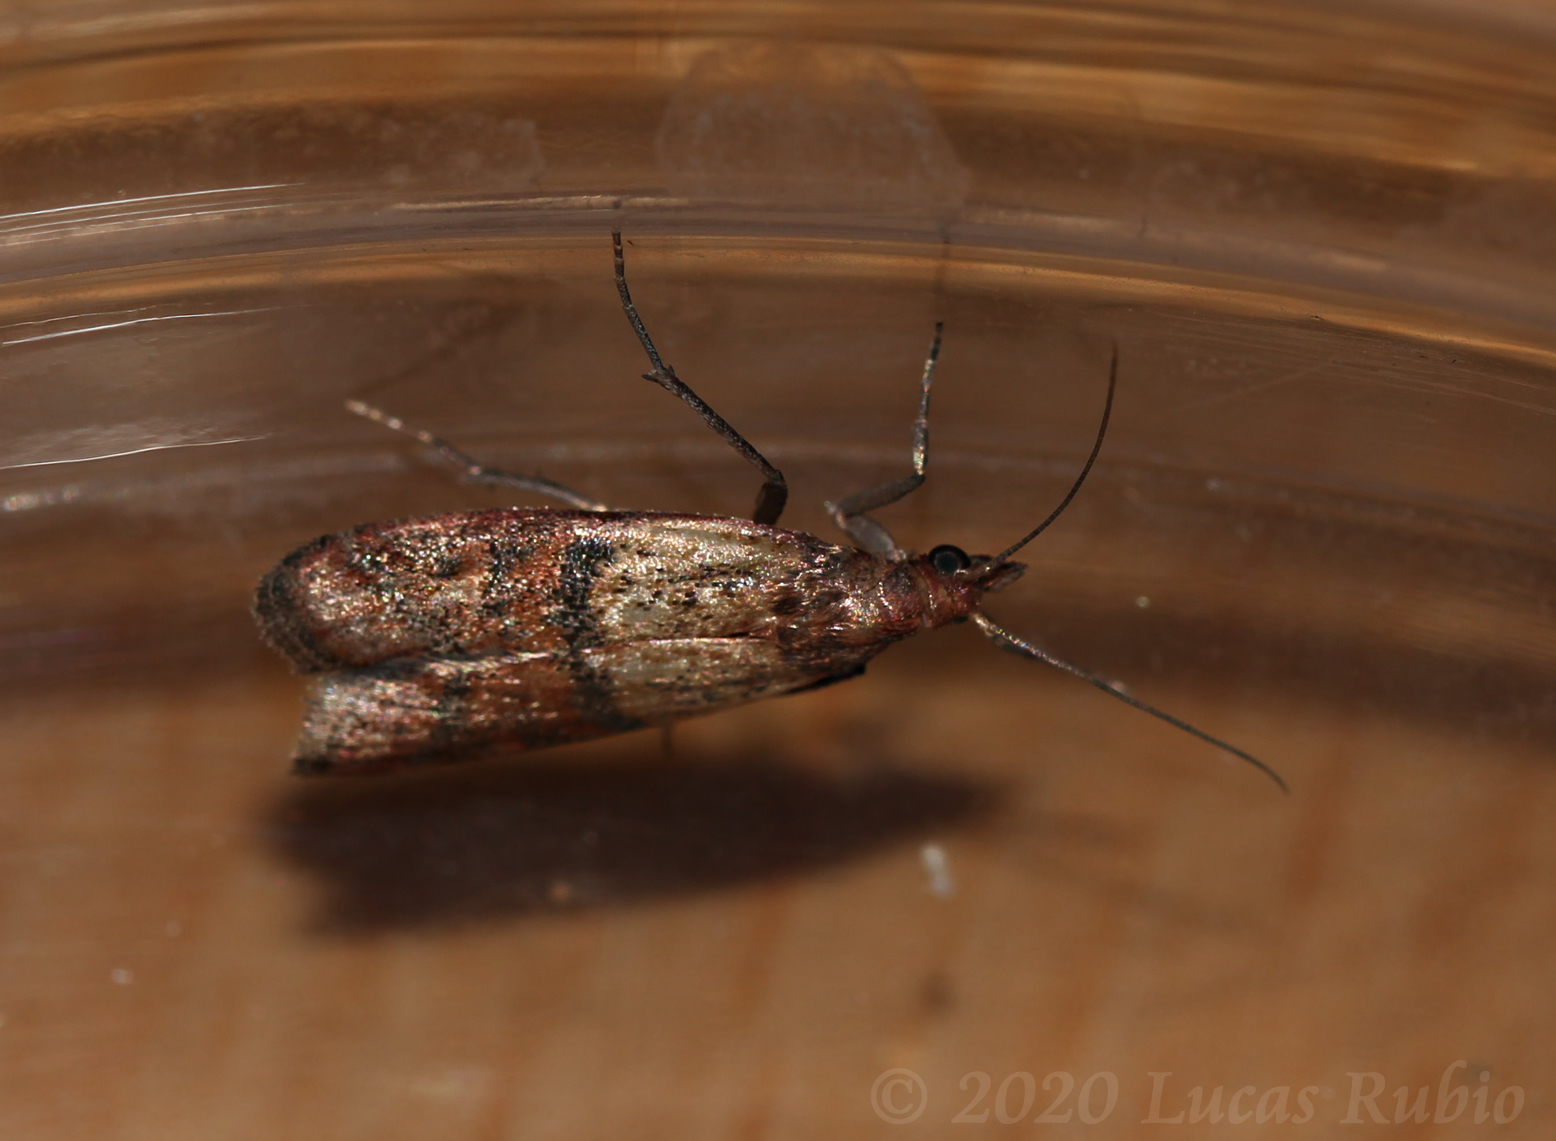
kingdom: Animalia
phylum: Arthropoda
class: Insecta
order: Lepidoptera
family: Pyralidae
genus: Plodia
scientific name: Plodia interpunctella
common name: Indian meal moth
